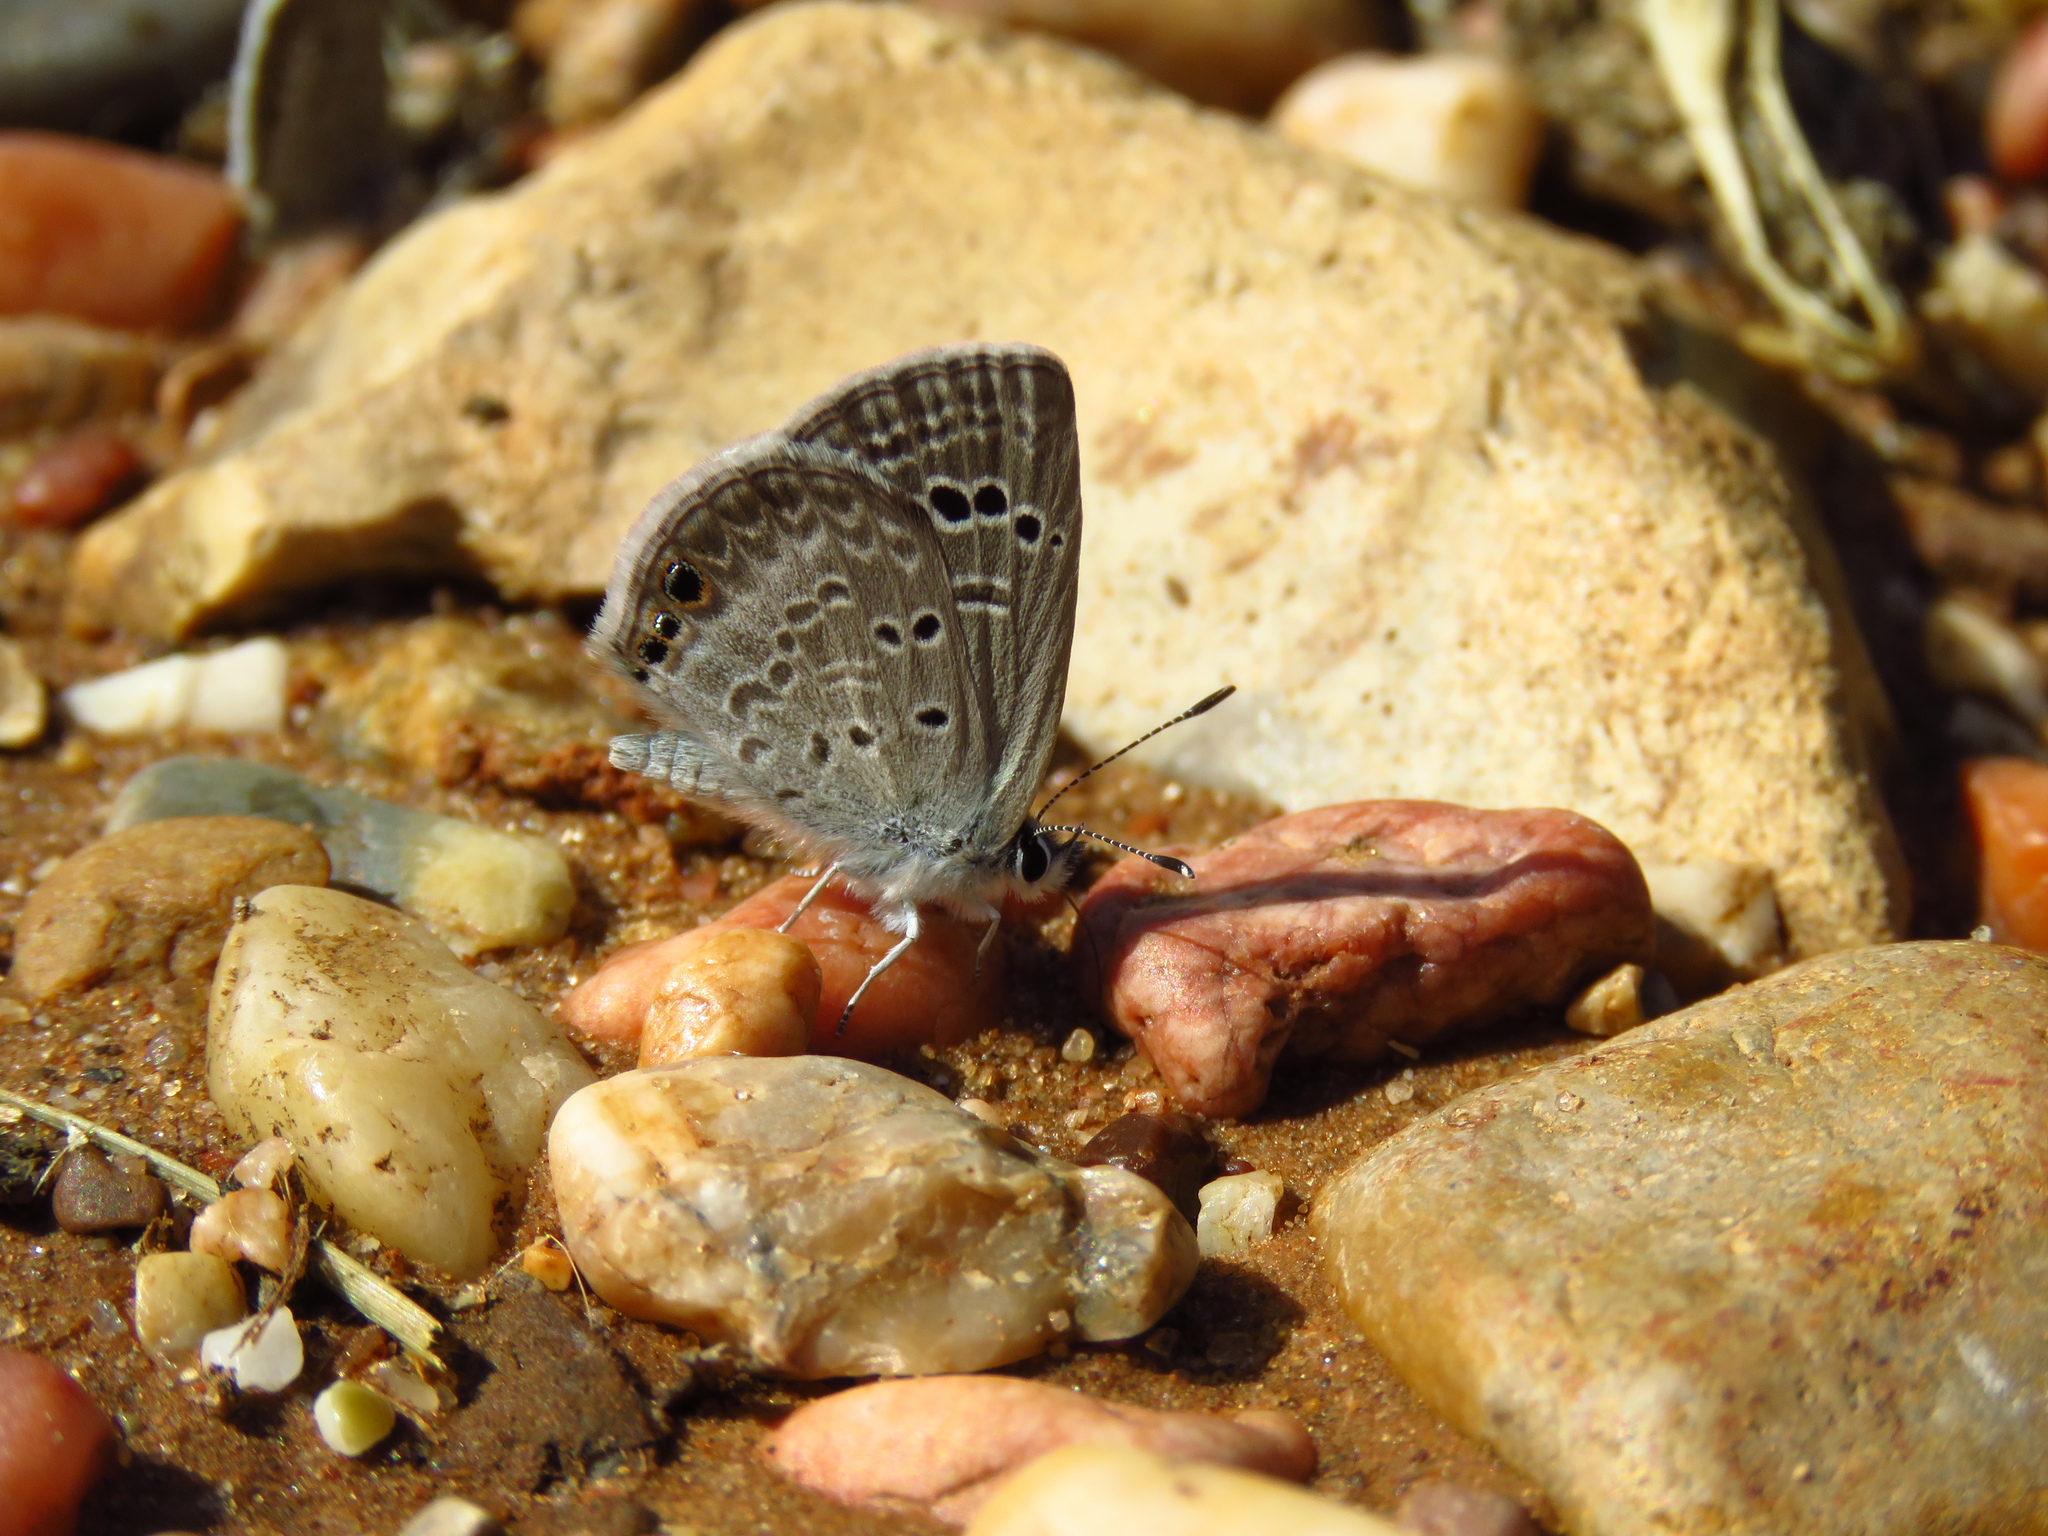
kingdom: Animalia
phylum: Arthropoda
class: Insecta
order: Lepidoptera
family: Lycaenidae
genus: Echinargus
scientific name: Echinargus isola
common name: Reakirt's blue
